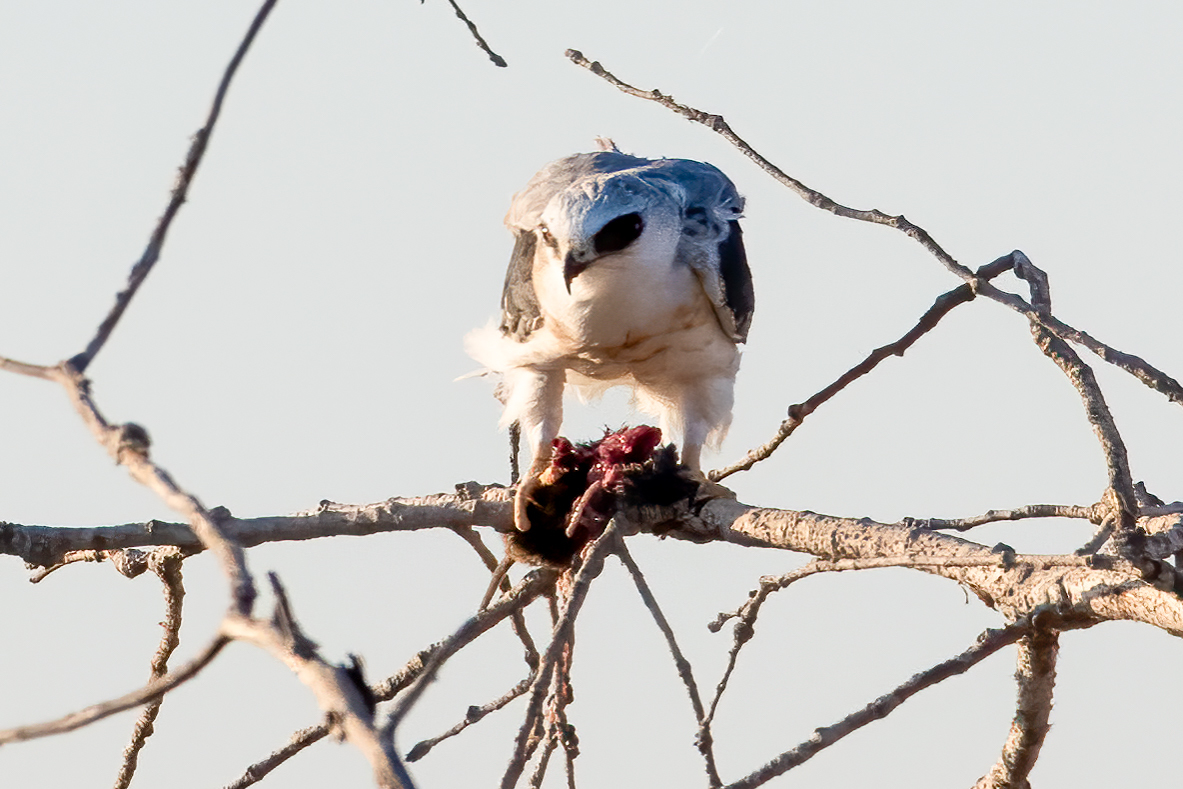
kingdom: Animalia
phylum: Chordata
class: Aves
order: Accipitriformes
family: Accipitridae
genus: Elanus
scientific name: Elanus leucurus
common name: White-tailed kite
